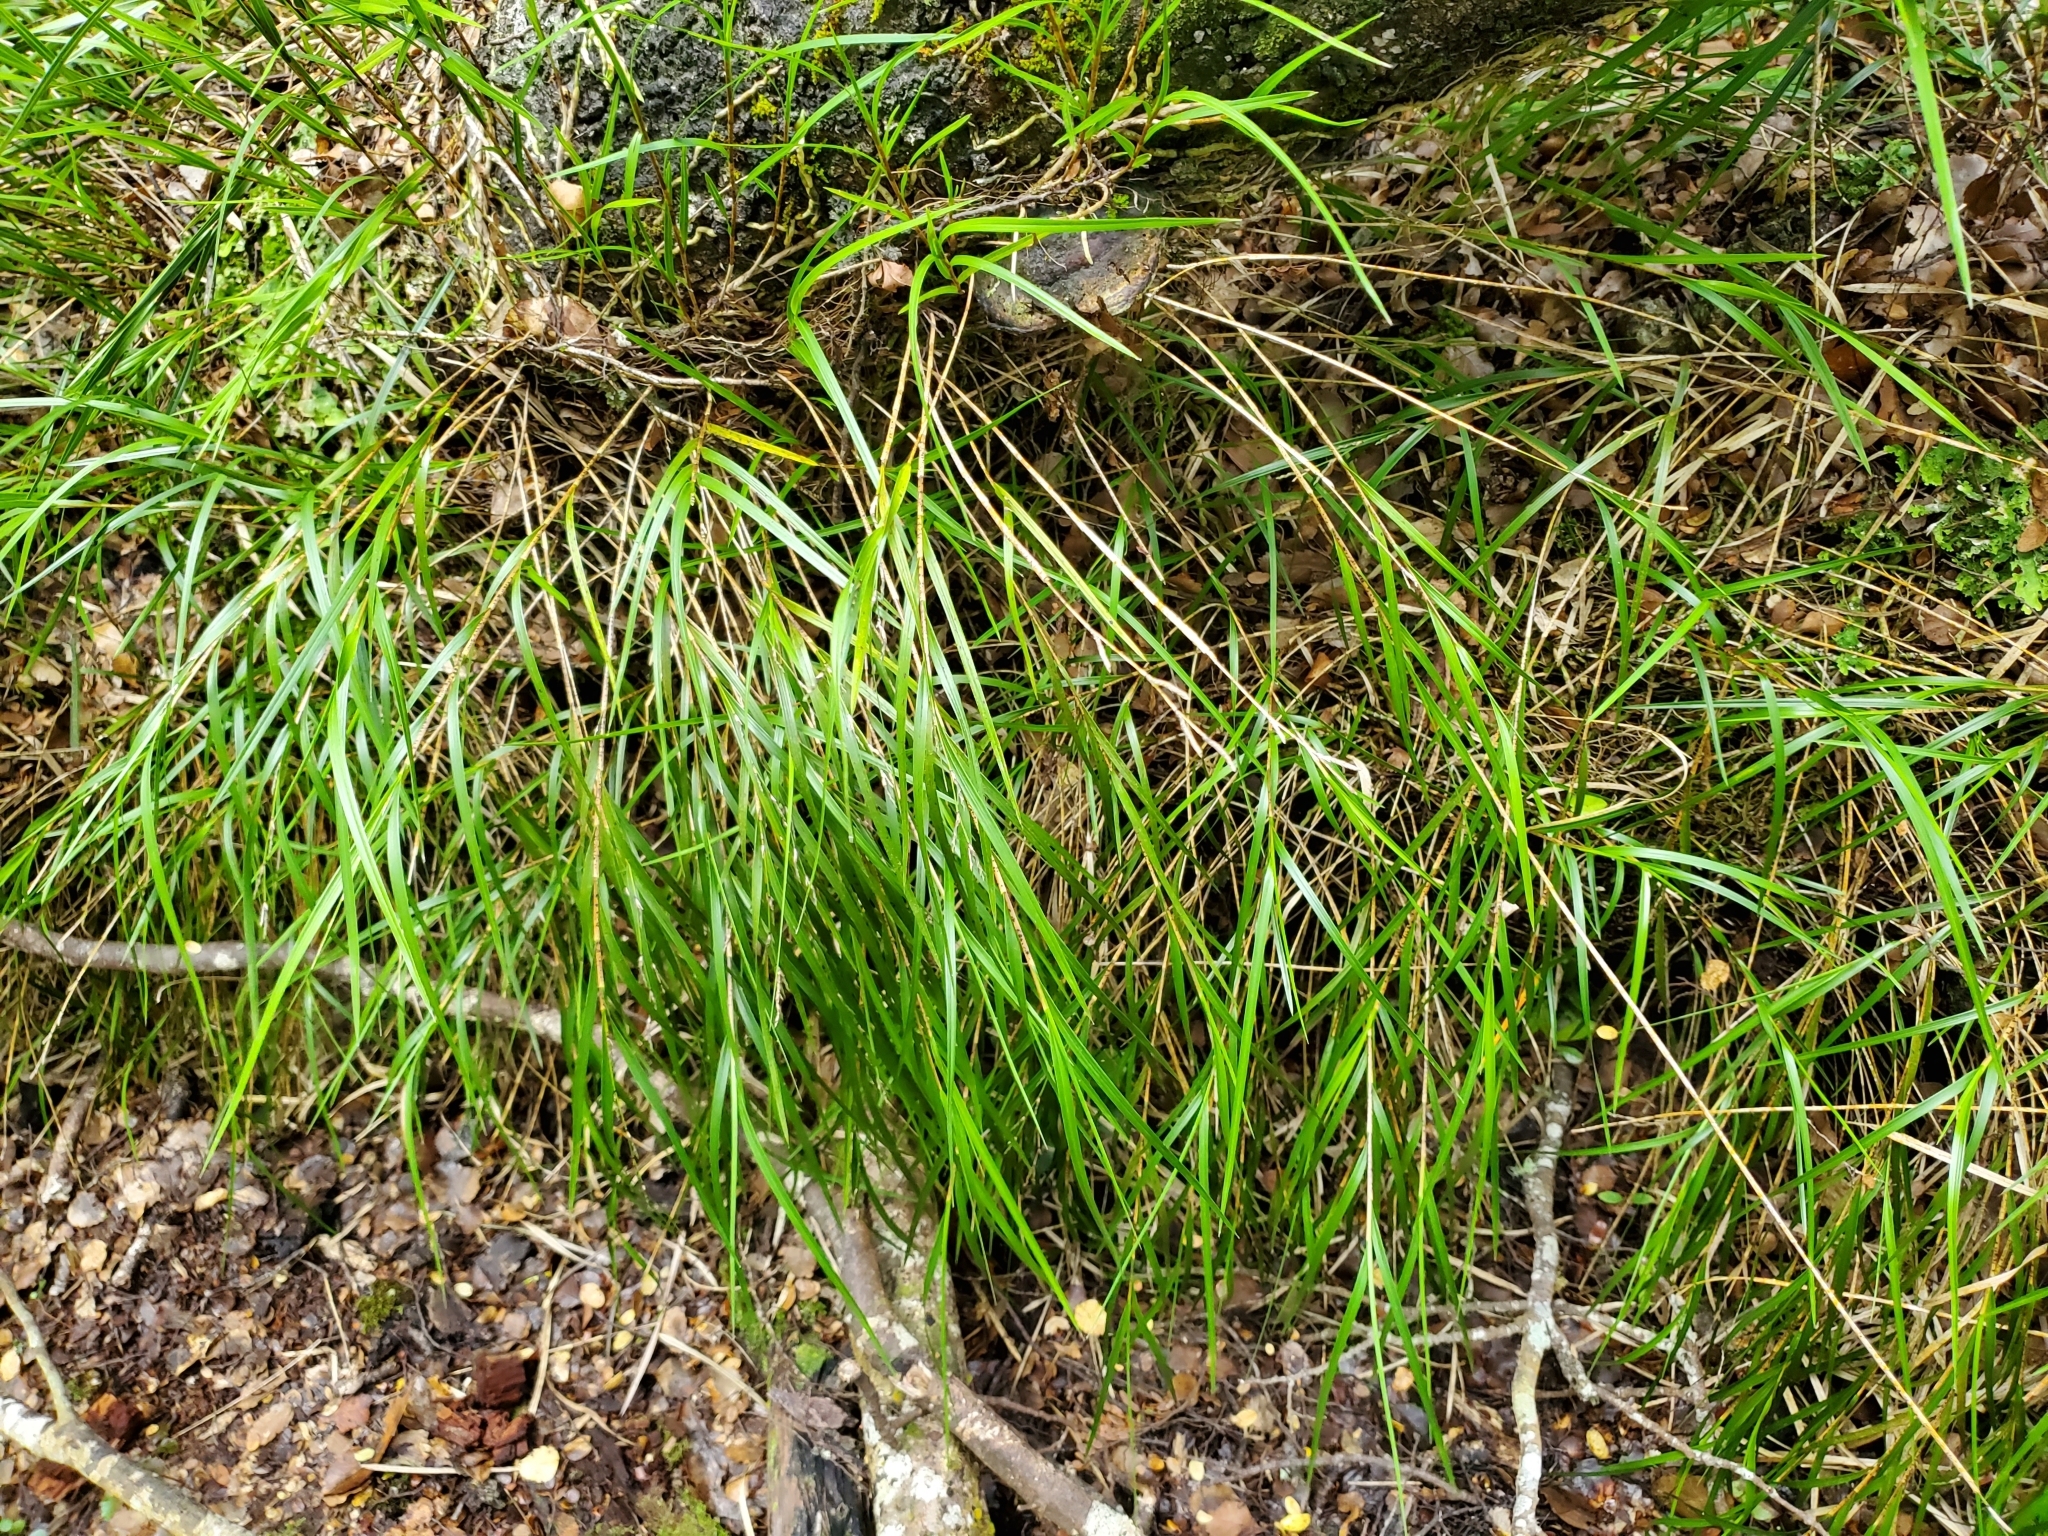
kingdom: Plantae
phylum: Tracheophyta
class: Liliopsida
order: Asparagales
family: Orchidaceae
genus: Earina
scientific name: Earina mucronata
